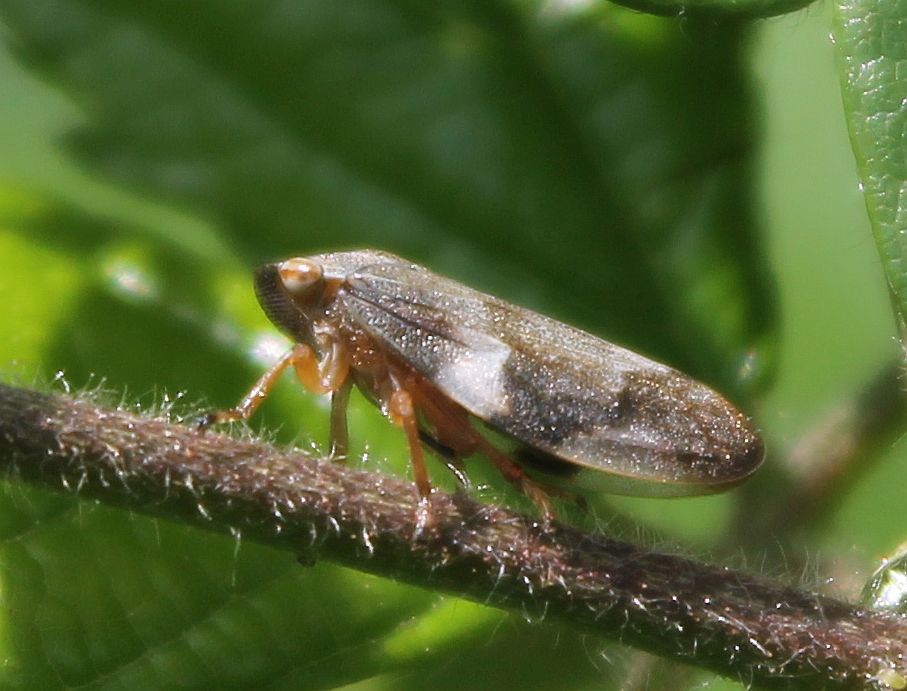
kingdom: Animalia
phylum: Arthropoda
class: Insecta
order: Hemiptera
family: Aphrophoridae
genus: Philaenus
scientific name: Philaenus spumarius
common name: Meadow spittlebug
